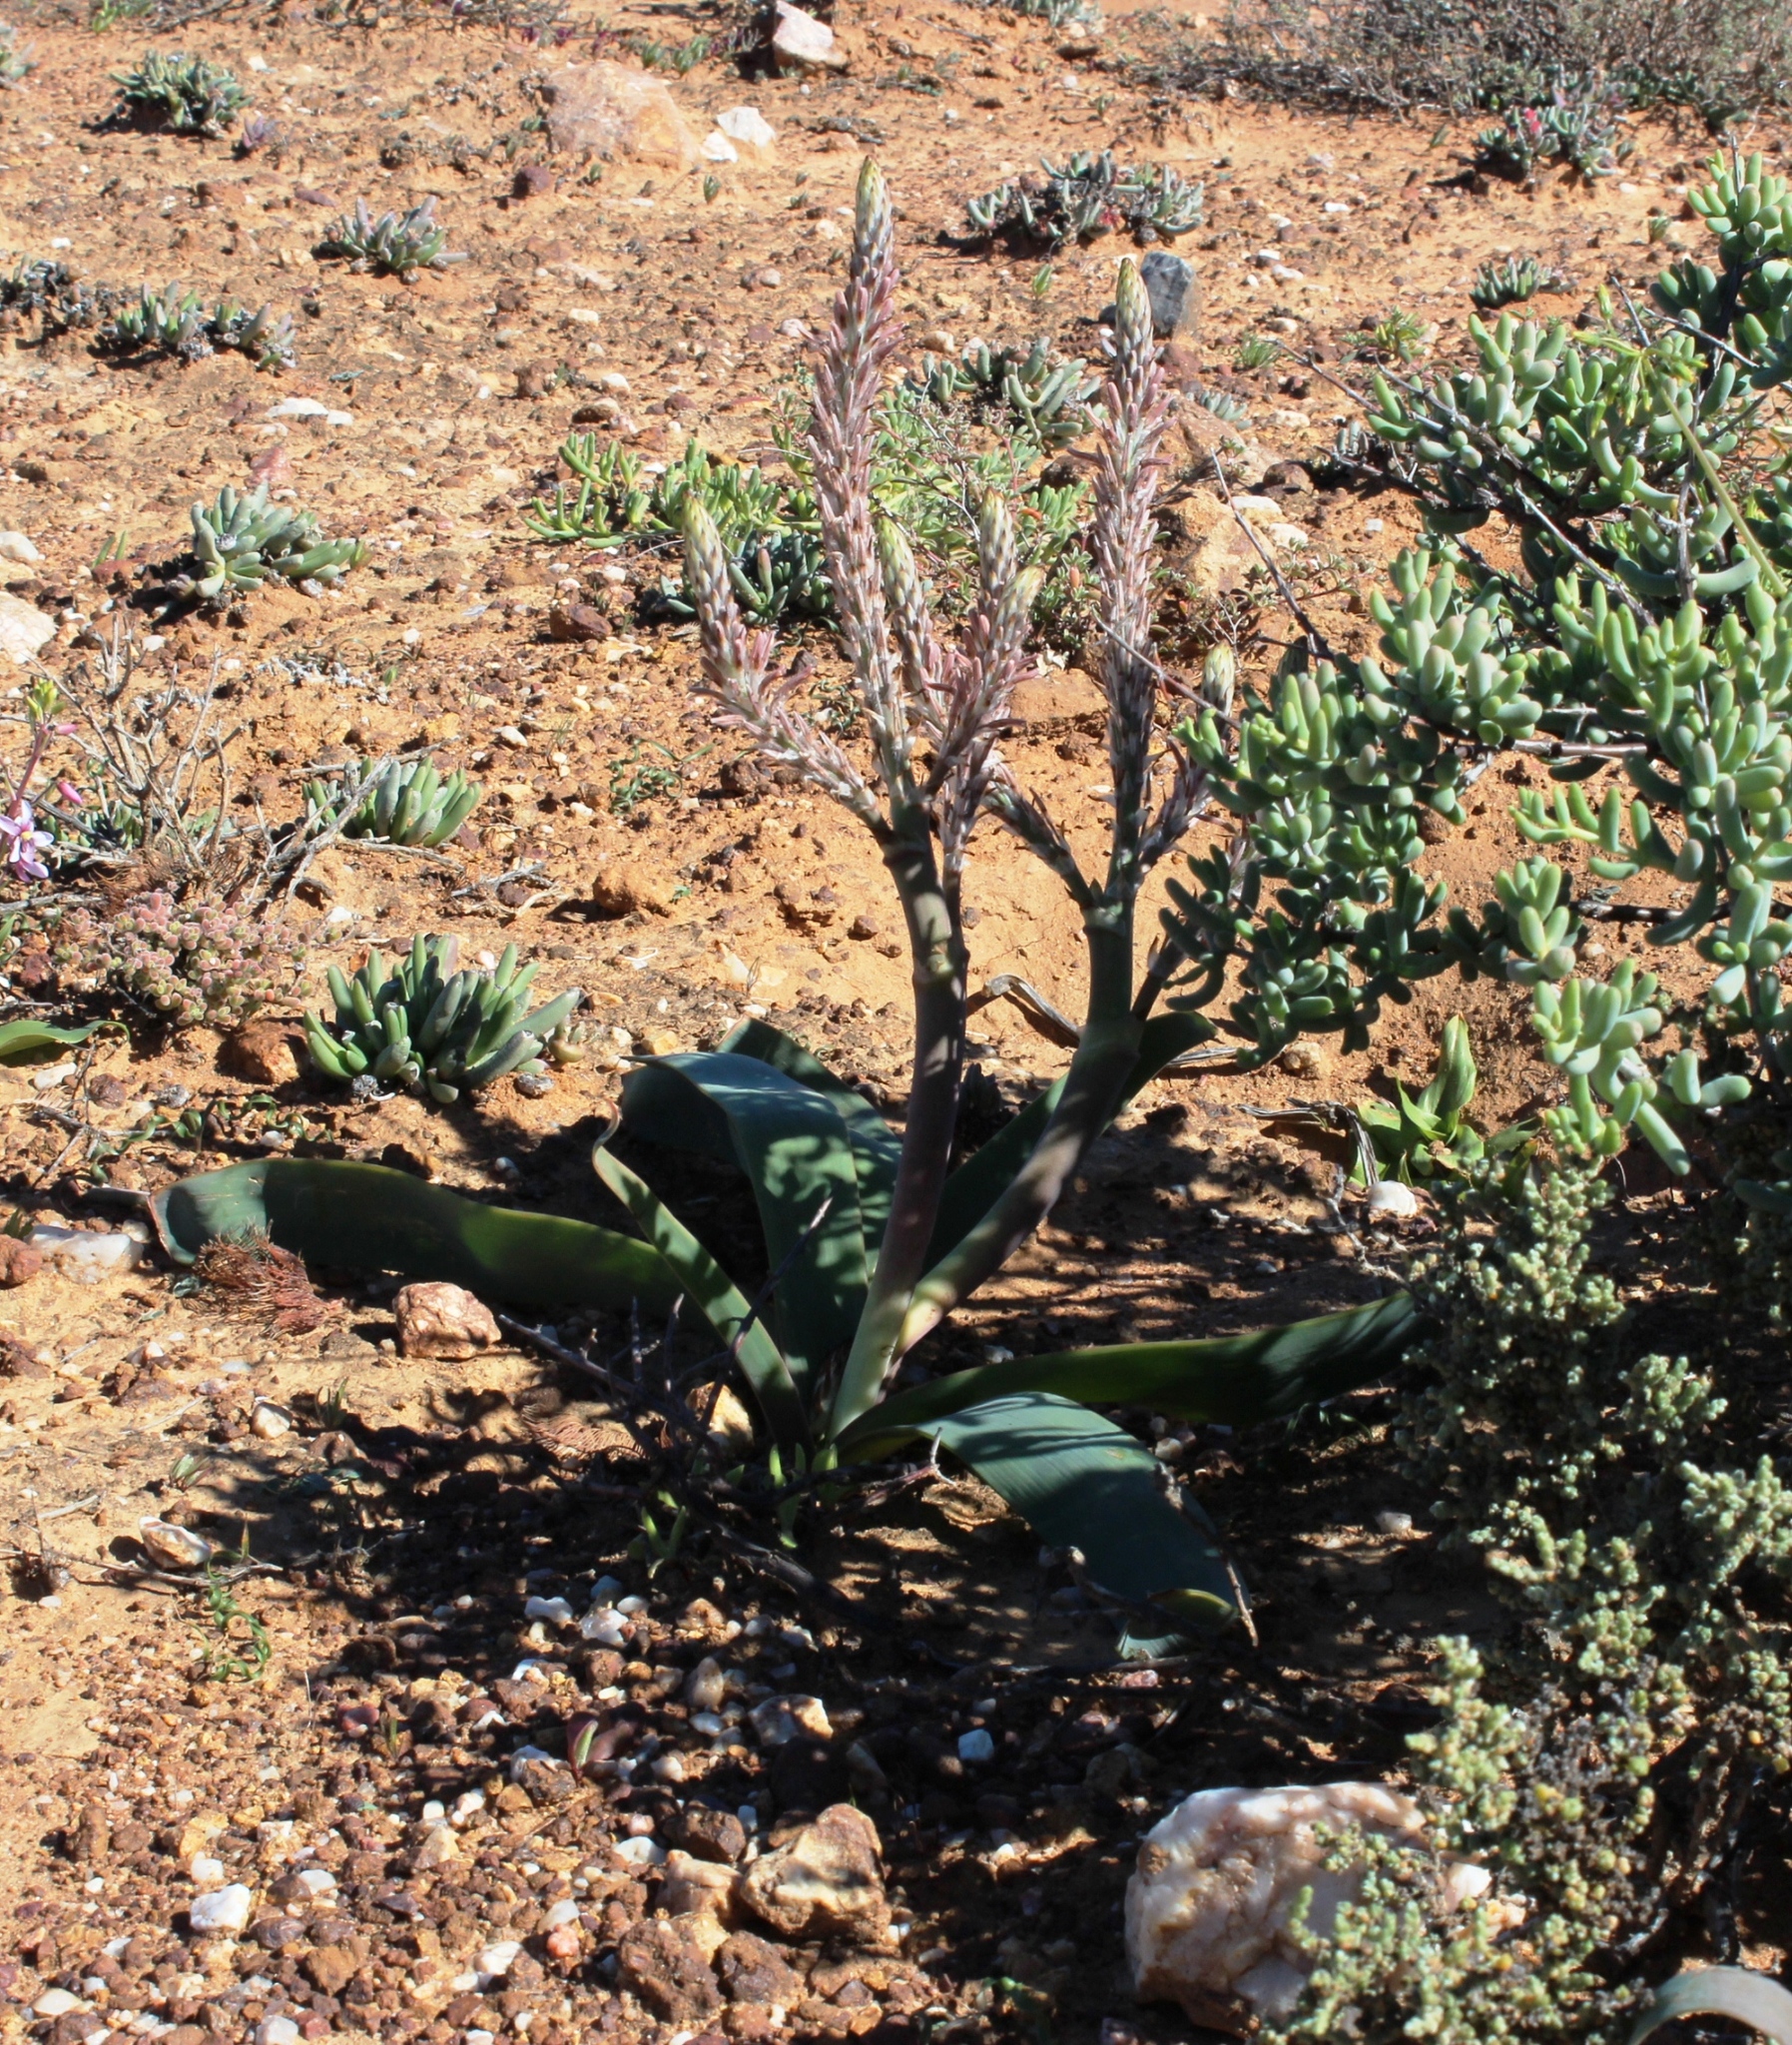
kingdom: Plantae
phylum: Tracheophyta
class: Liliopsida
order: Asparagales
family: Asphodelaceae
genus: Trachyandra
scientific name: Trachyandra falcata
